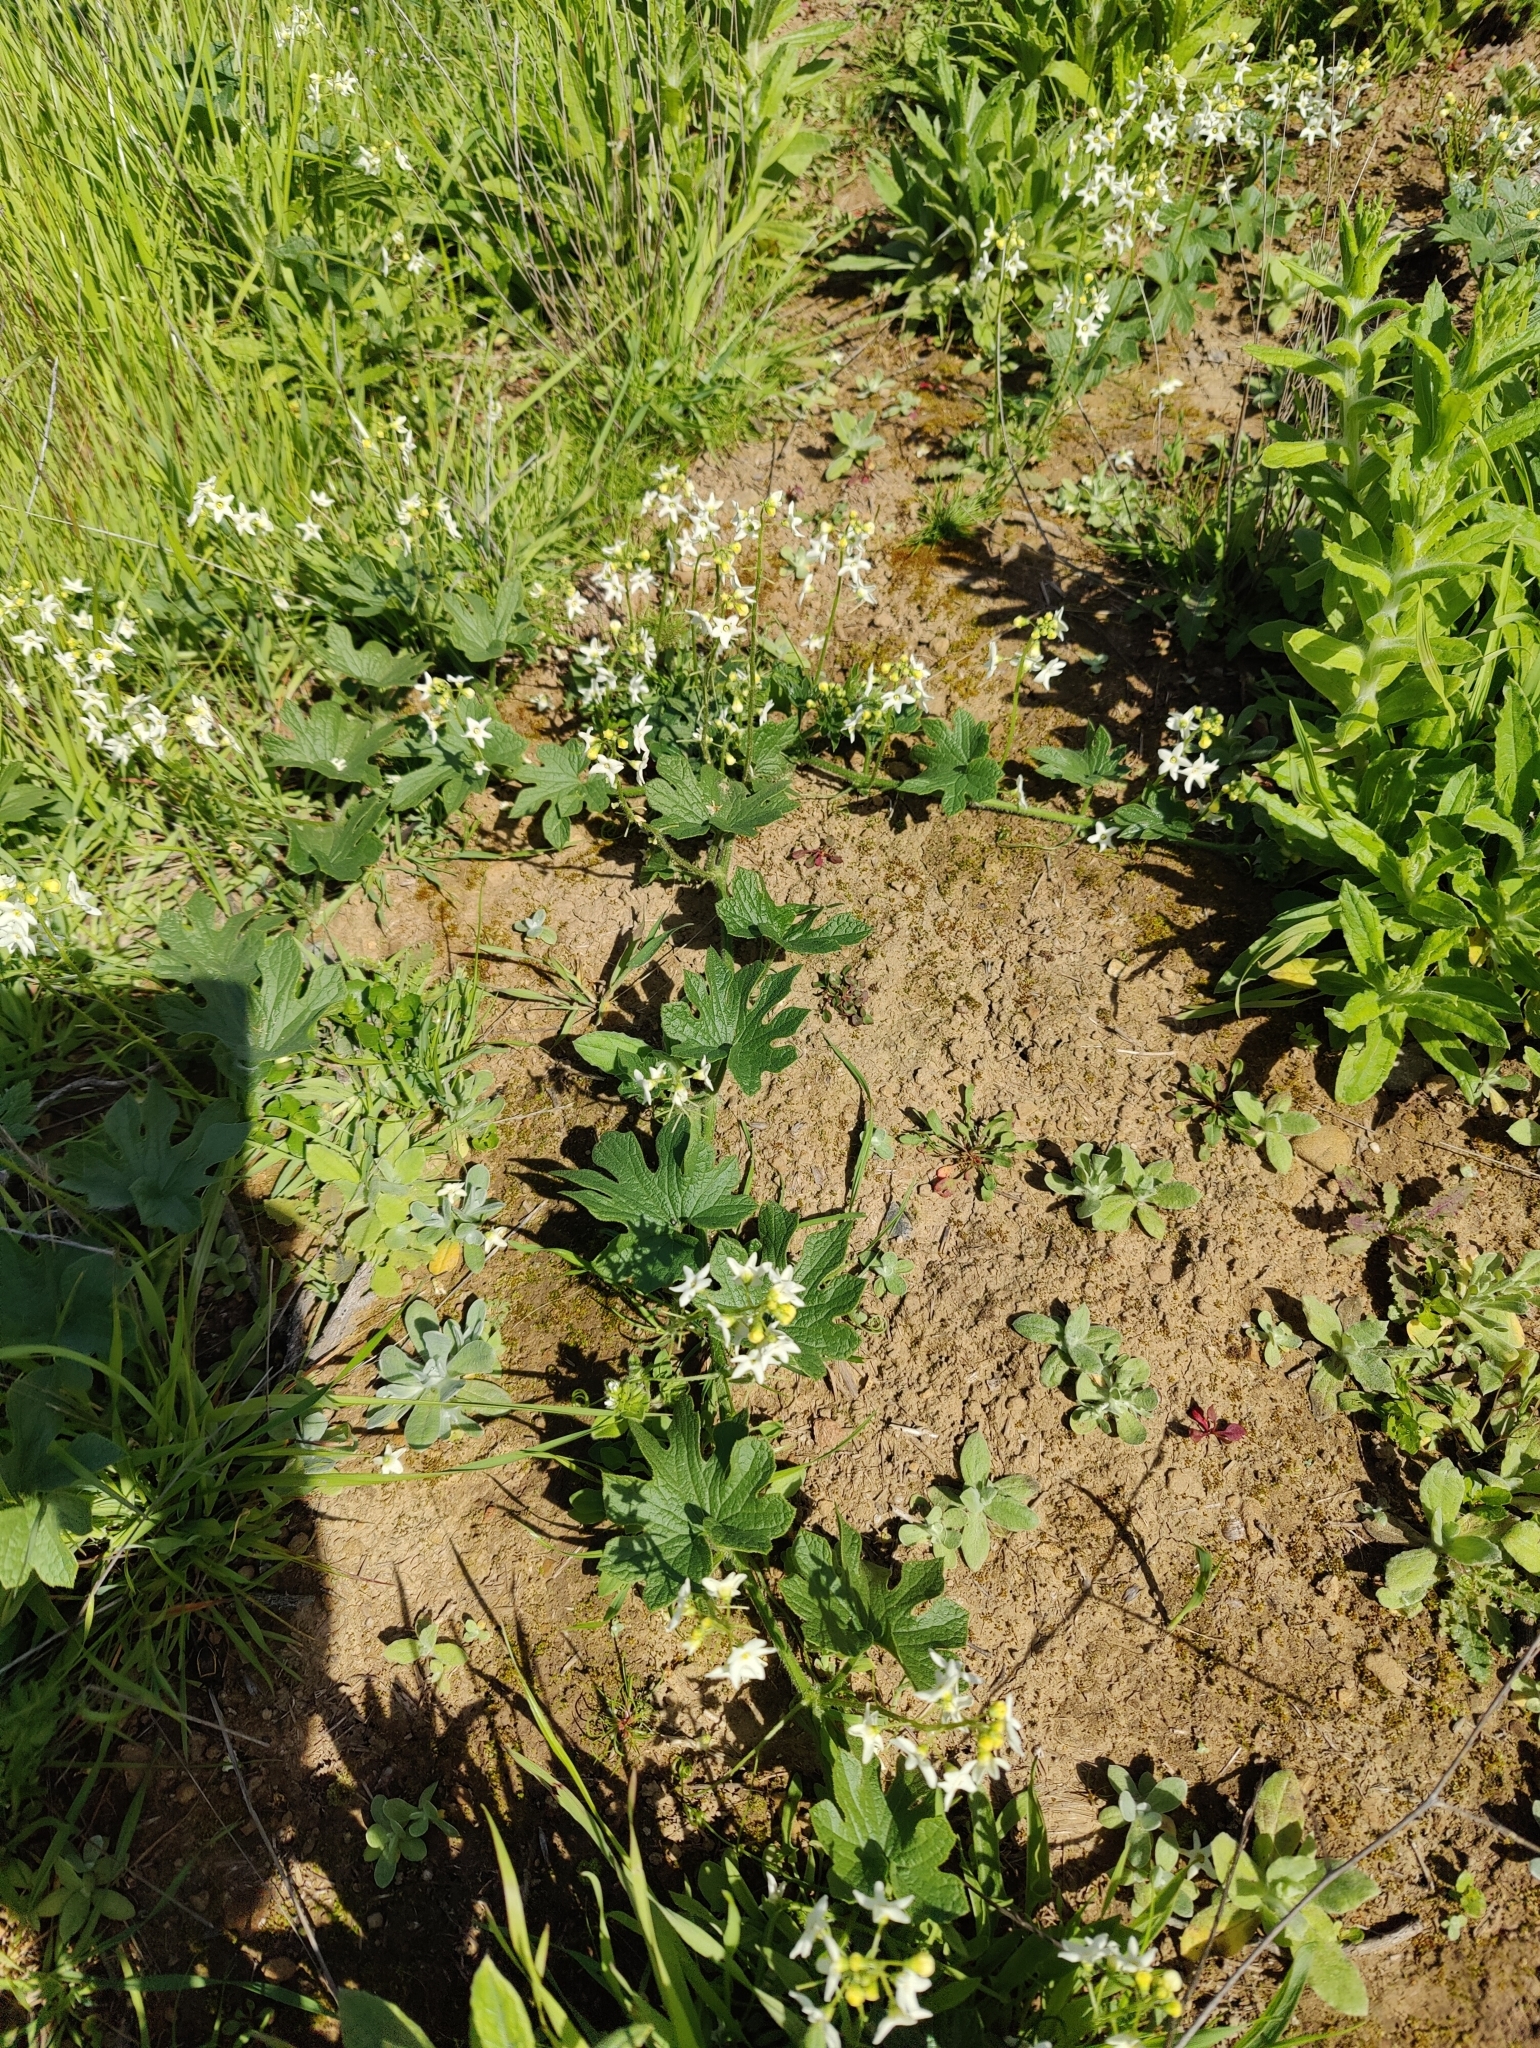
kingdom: Plantae
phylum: Tracheophyta
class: Magnoliopsida
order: Cucurbitales
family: Cucurbitaceae
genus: Marah
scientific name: Marah oregana
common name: Coastal manroot
